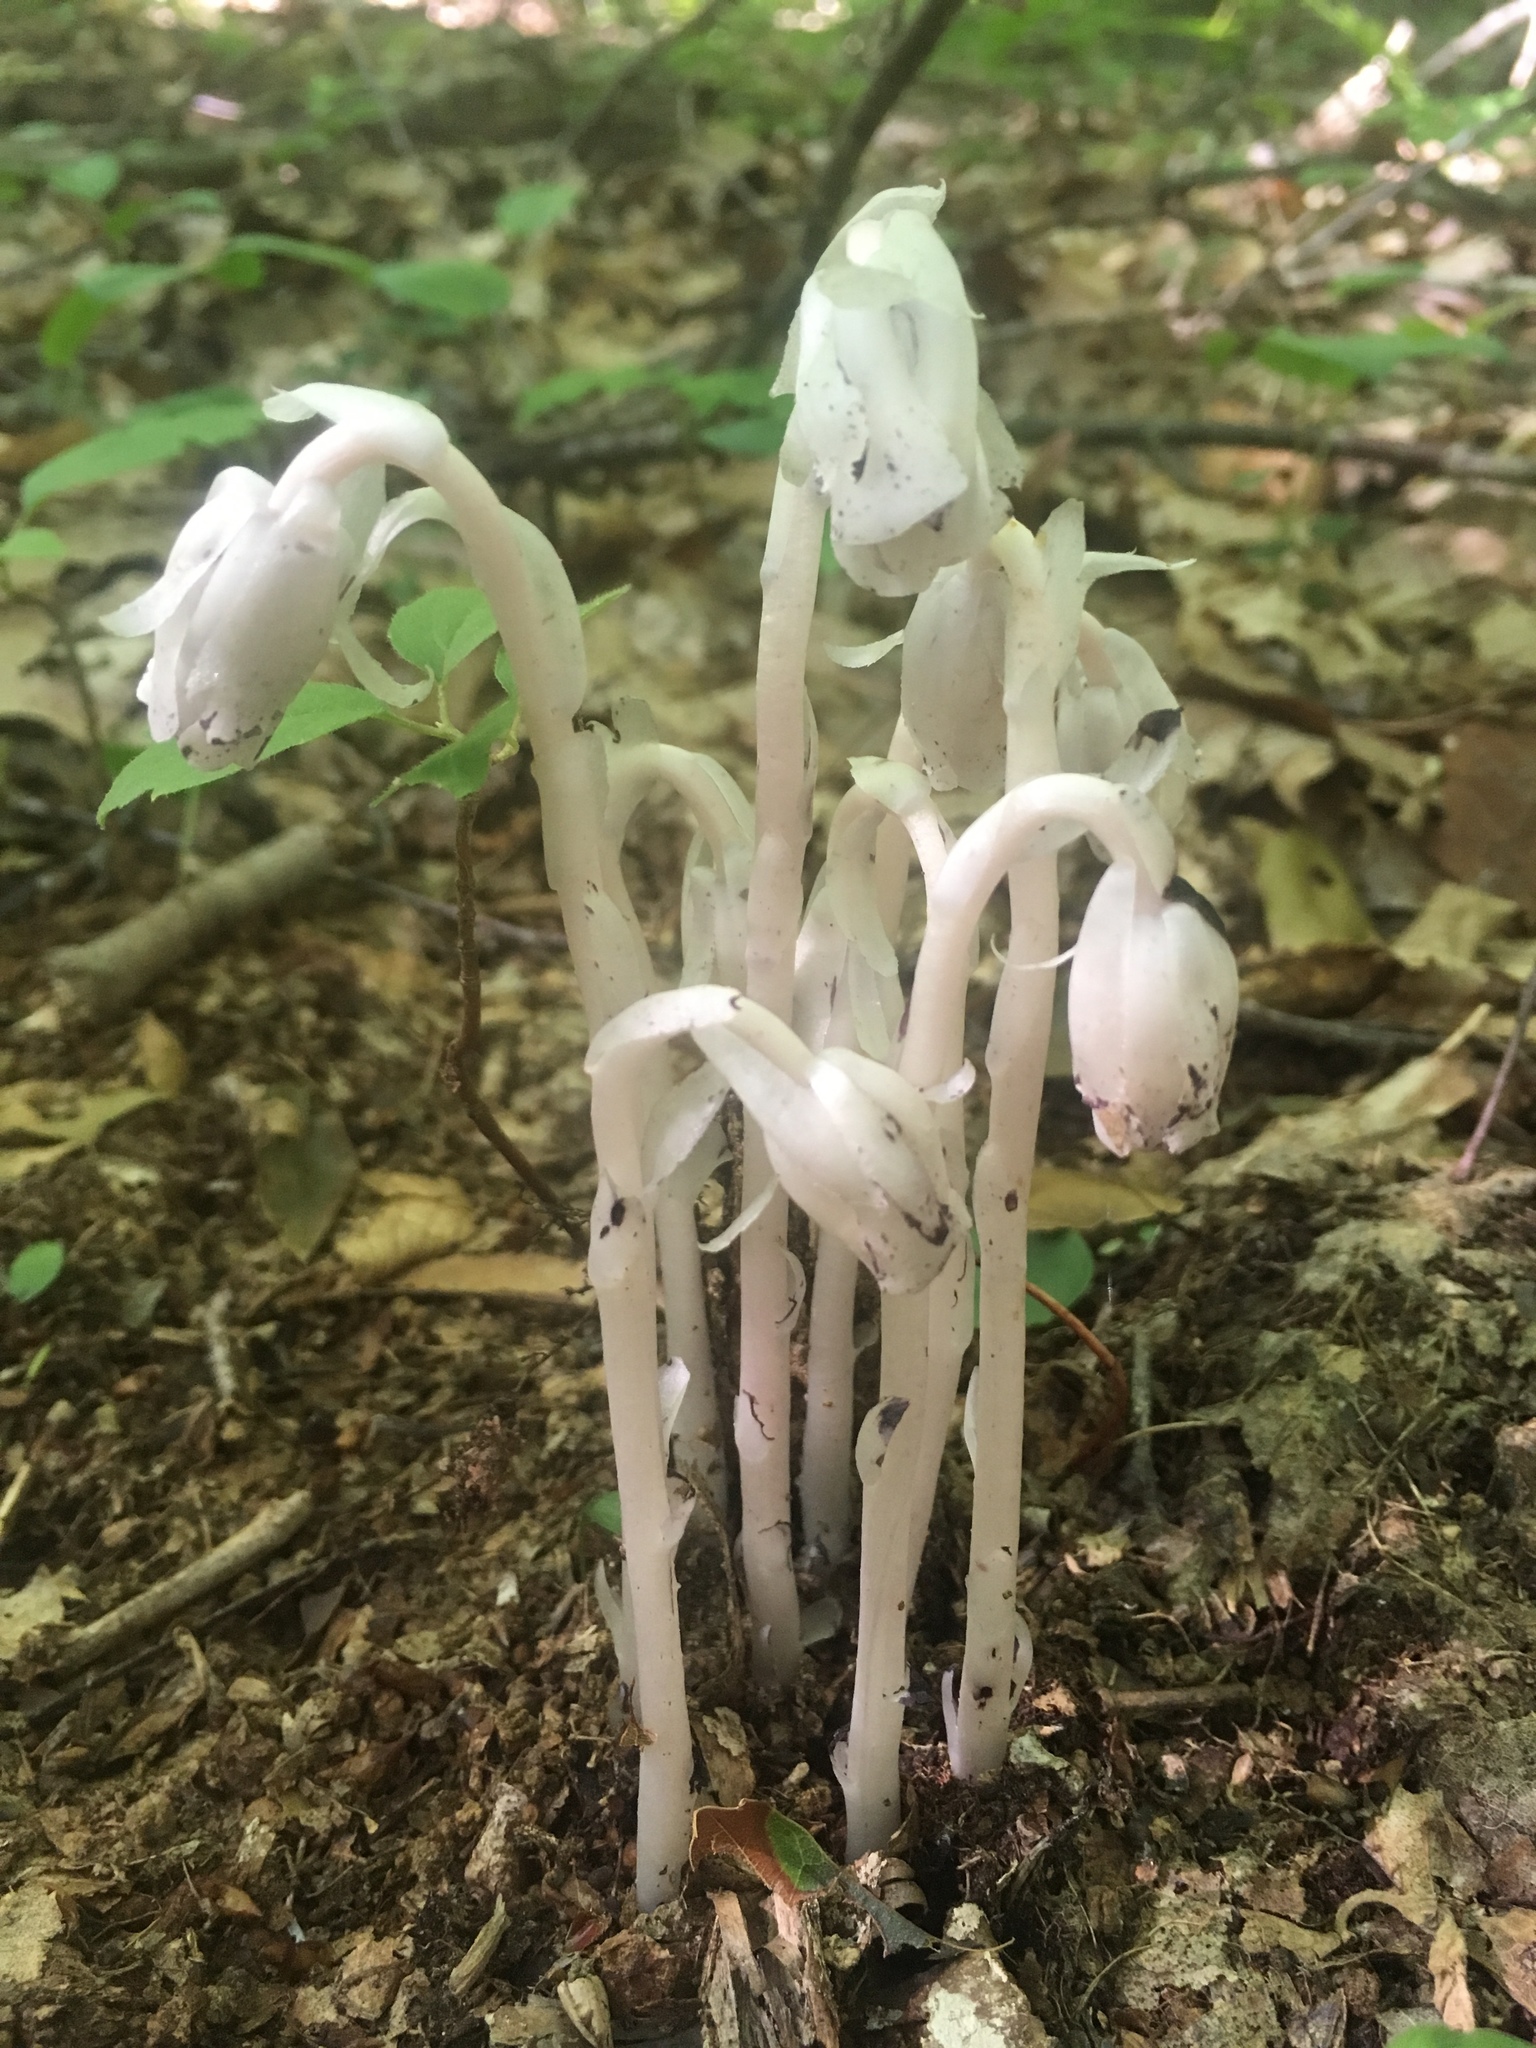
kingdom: Plantae
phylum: Tracheophyta
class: Magnoliopsida
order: Ericales
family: Ericaceae
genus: Monotropa
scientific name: Monotropa uniflora
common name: Convulsion root
